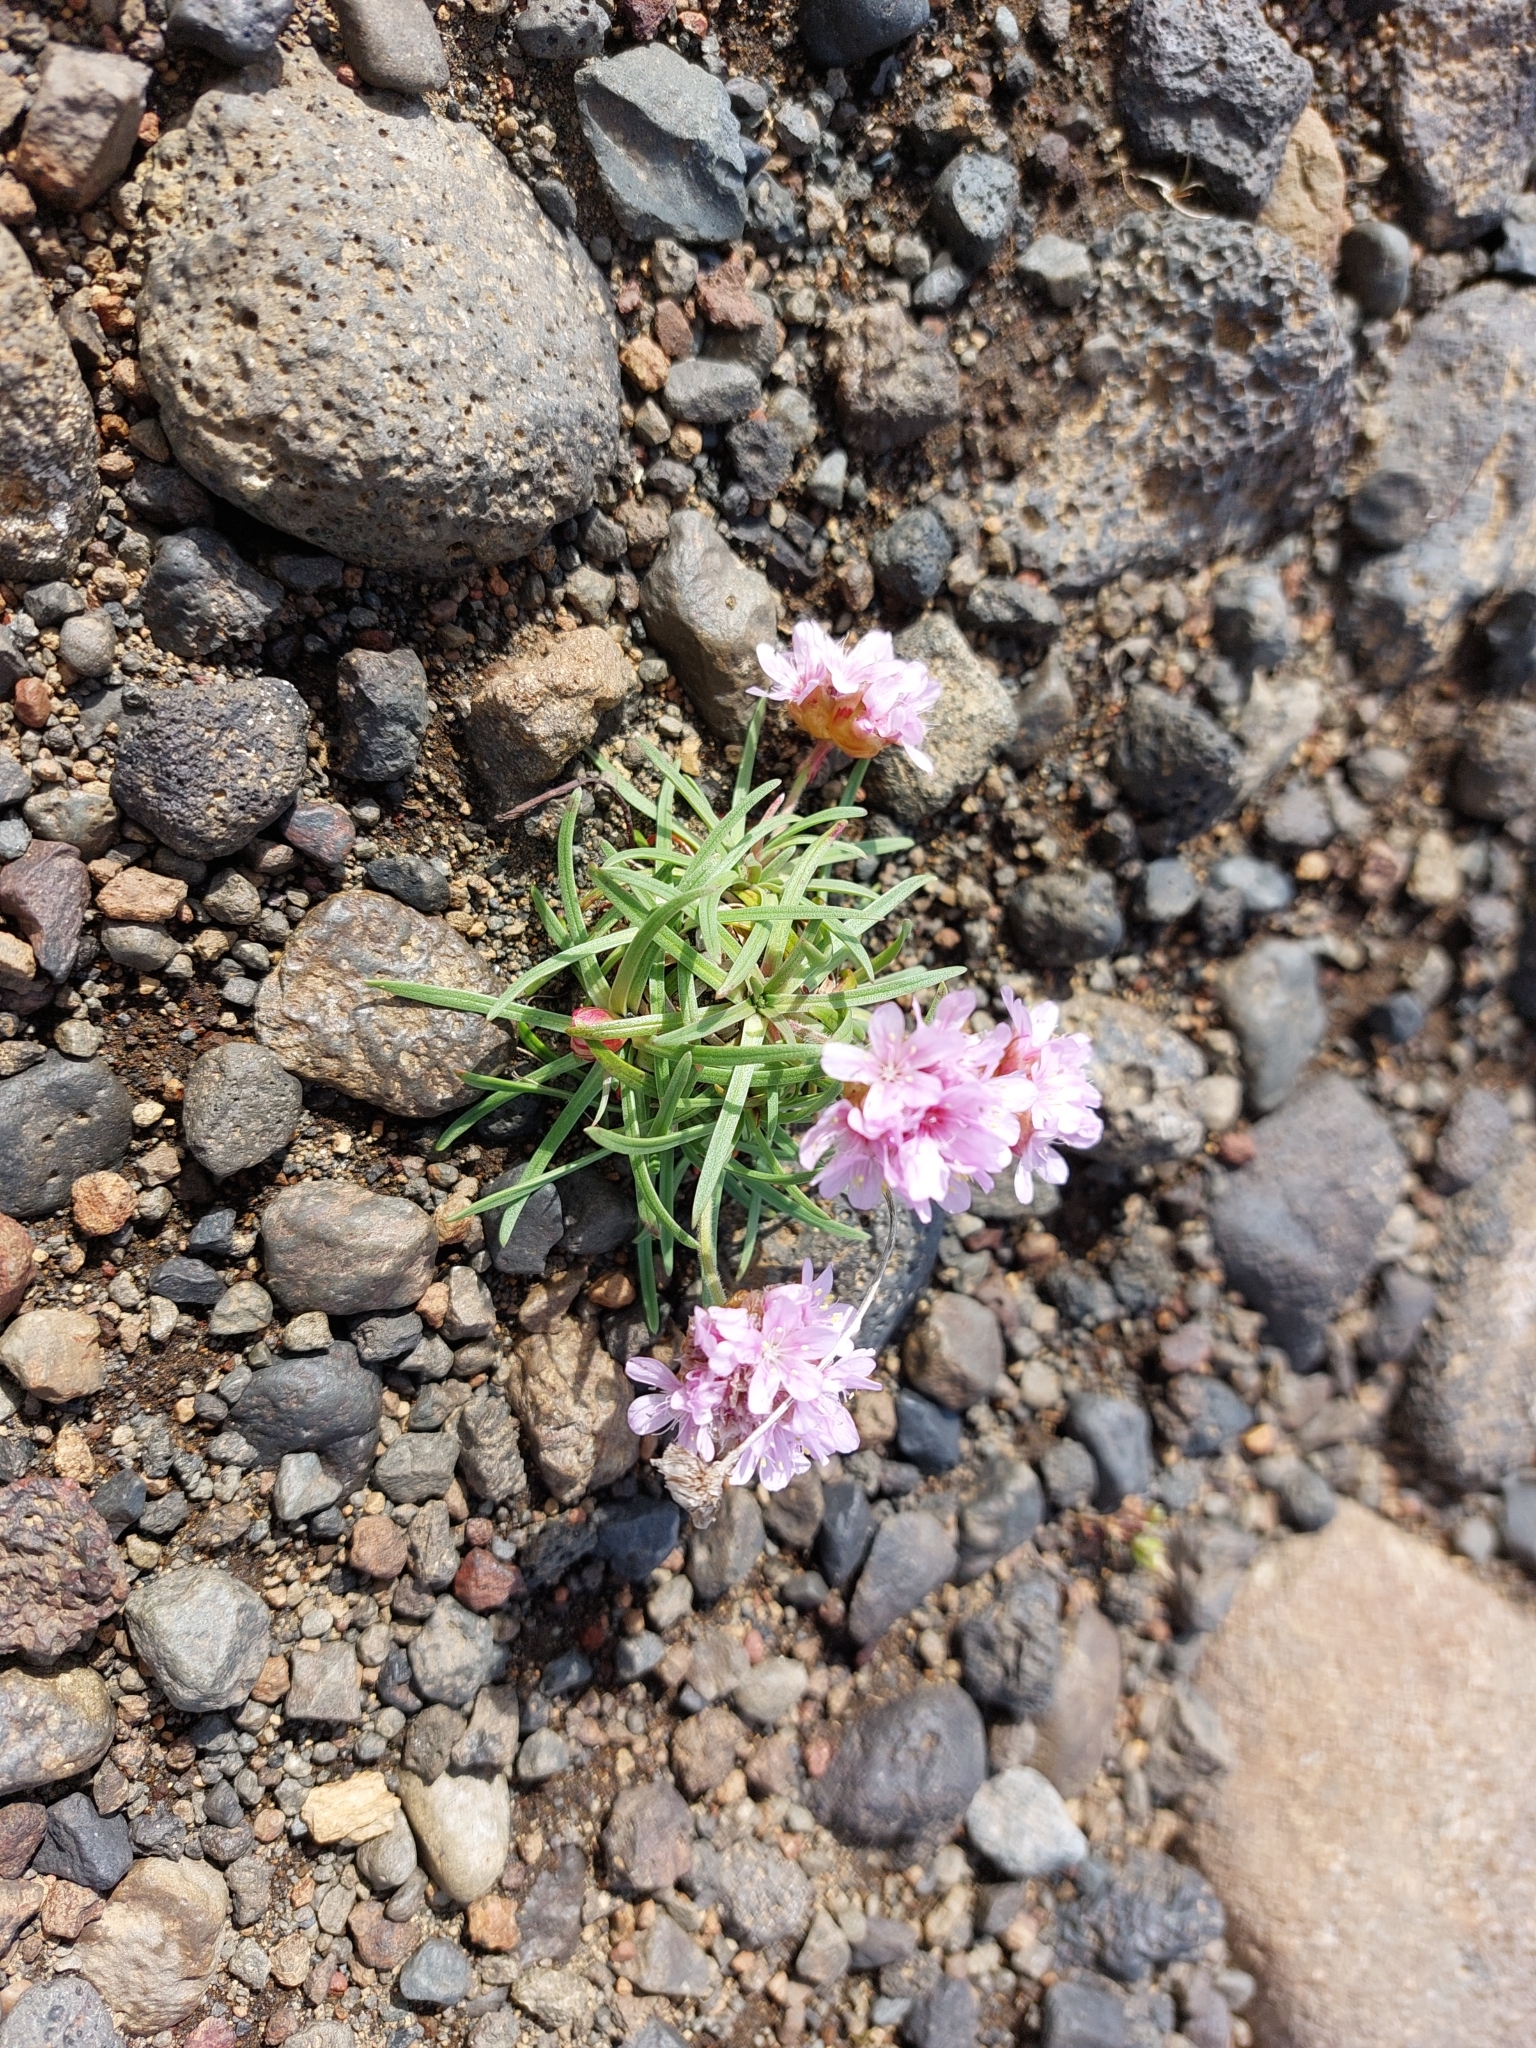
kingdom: Plantae
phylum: Tracheophyta
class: Magnoliopsida
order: Caryophyllales
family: Plumbaginaceae
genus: Armeria
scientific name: Armeria maritima
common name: Thrift
